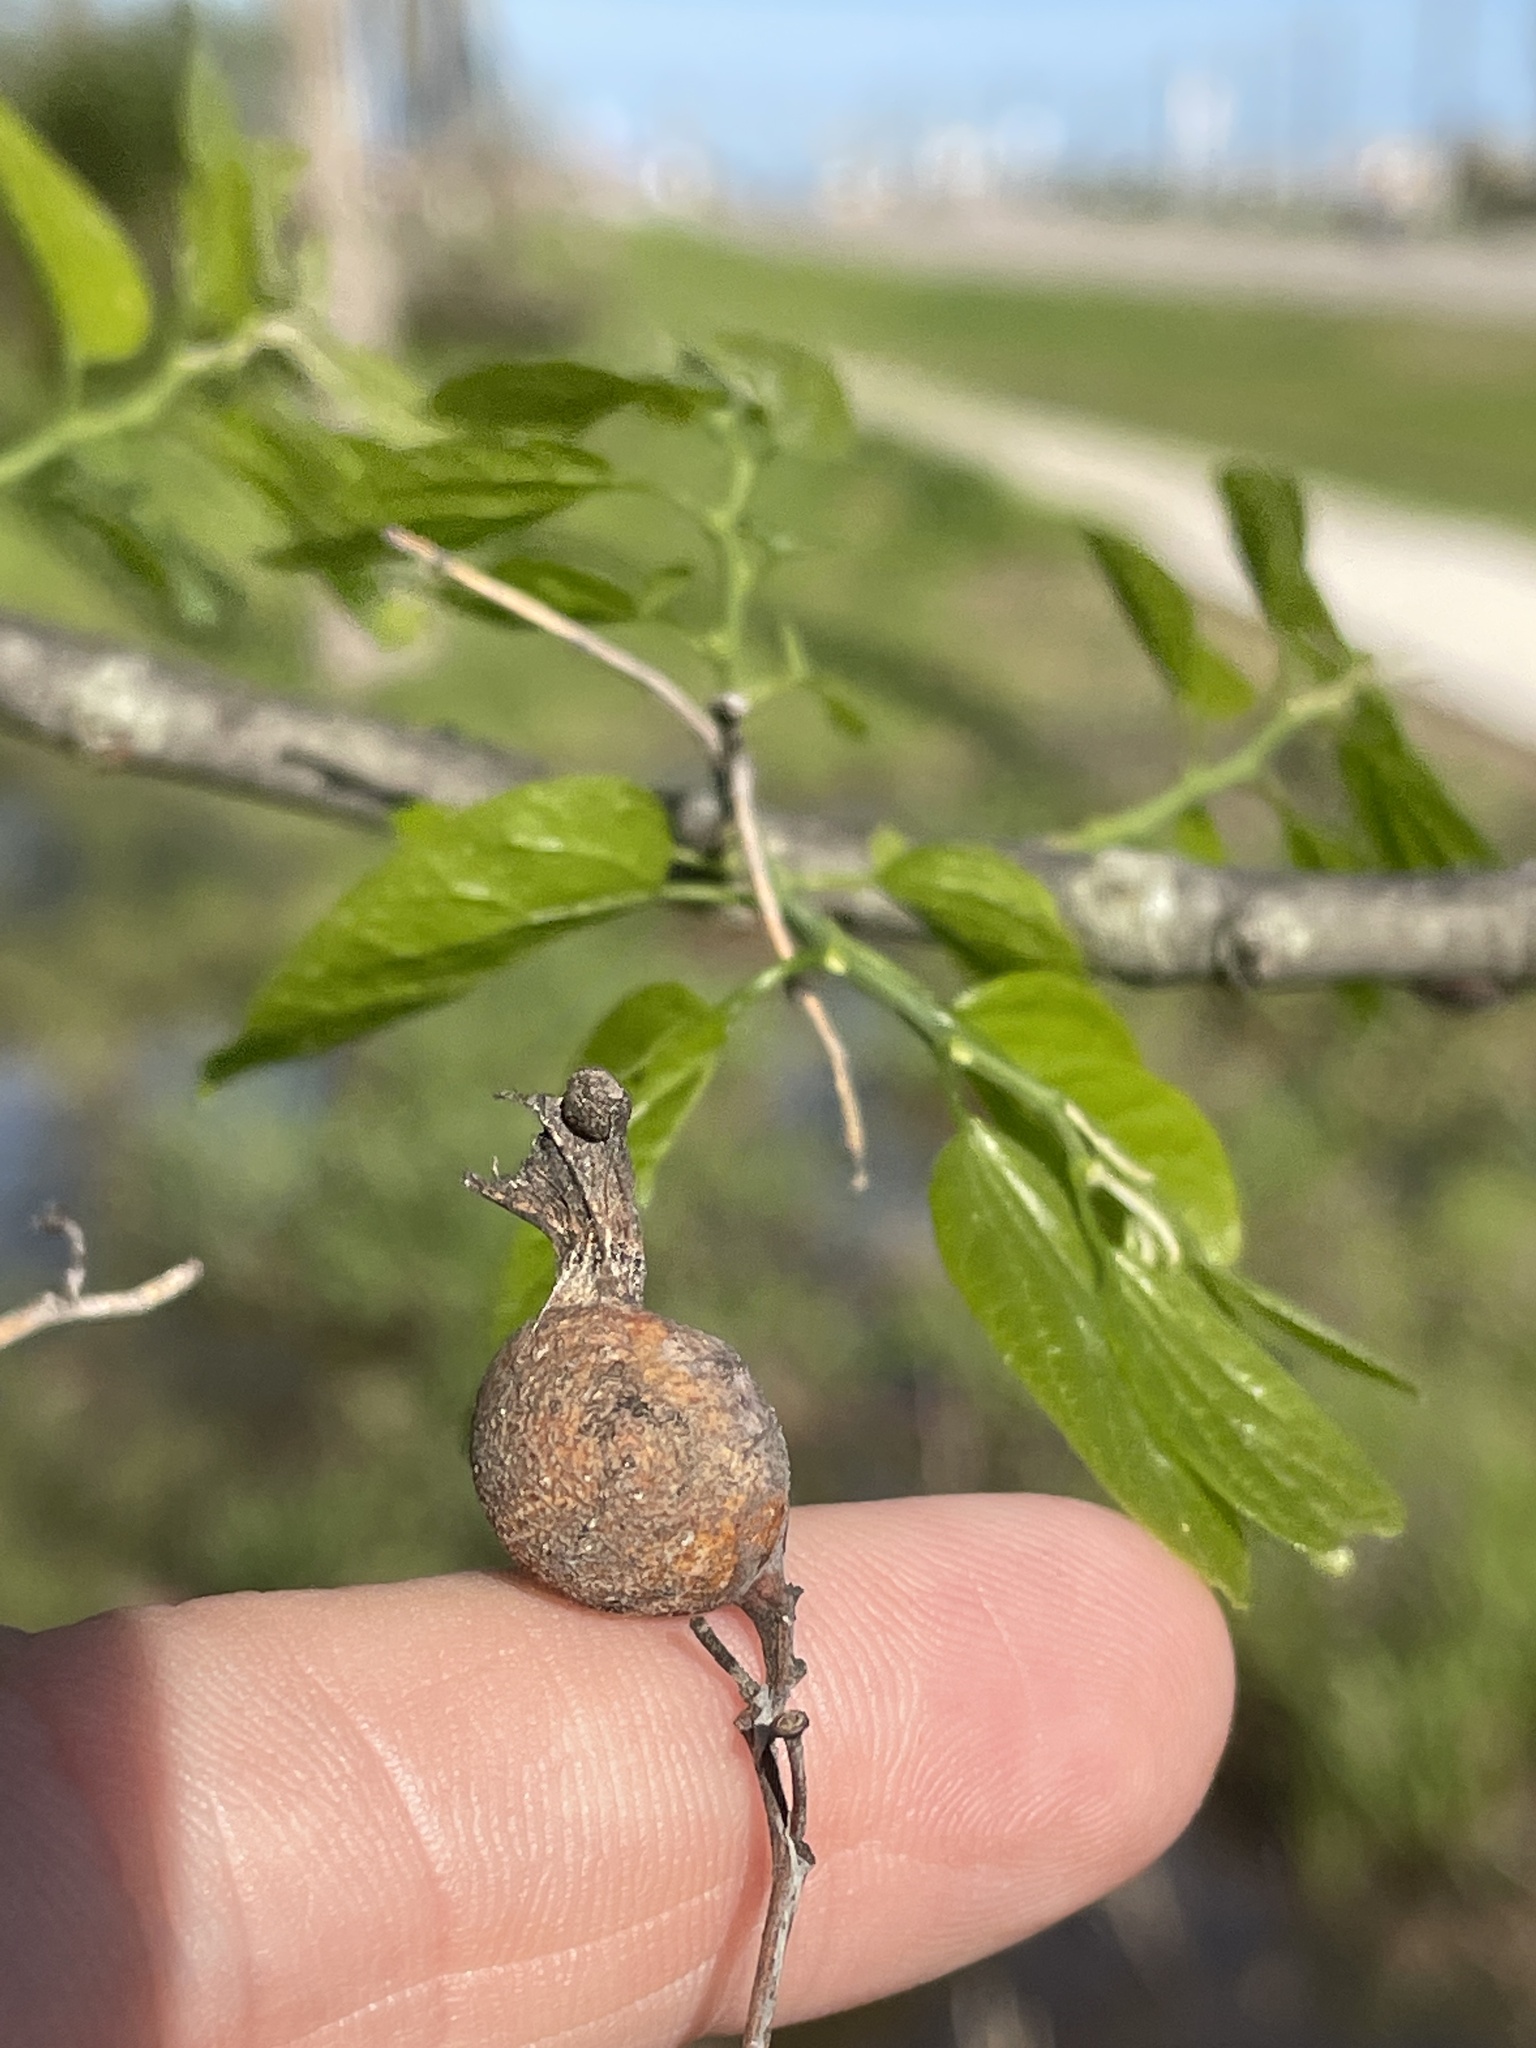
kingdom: Animalia
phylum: Arthropoda
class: Insecta
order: Hemiptera
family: Aphalaridae
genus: Pachypsylla
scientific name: Pachypsylla venusta
